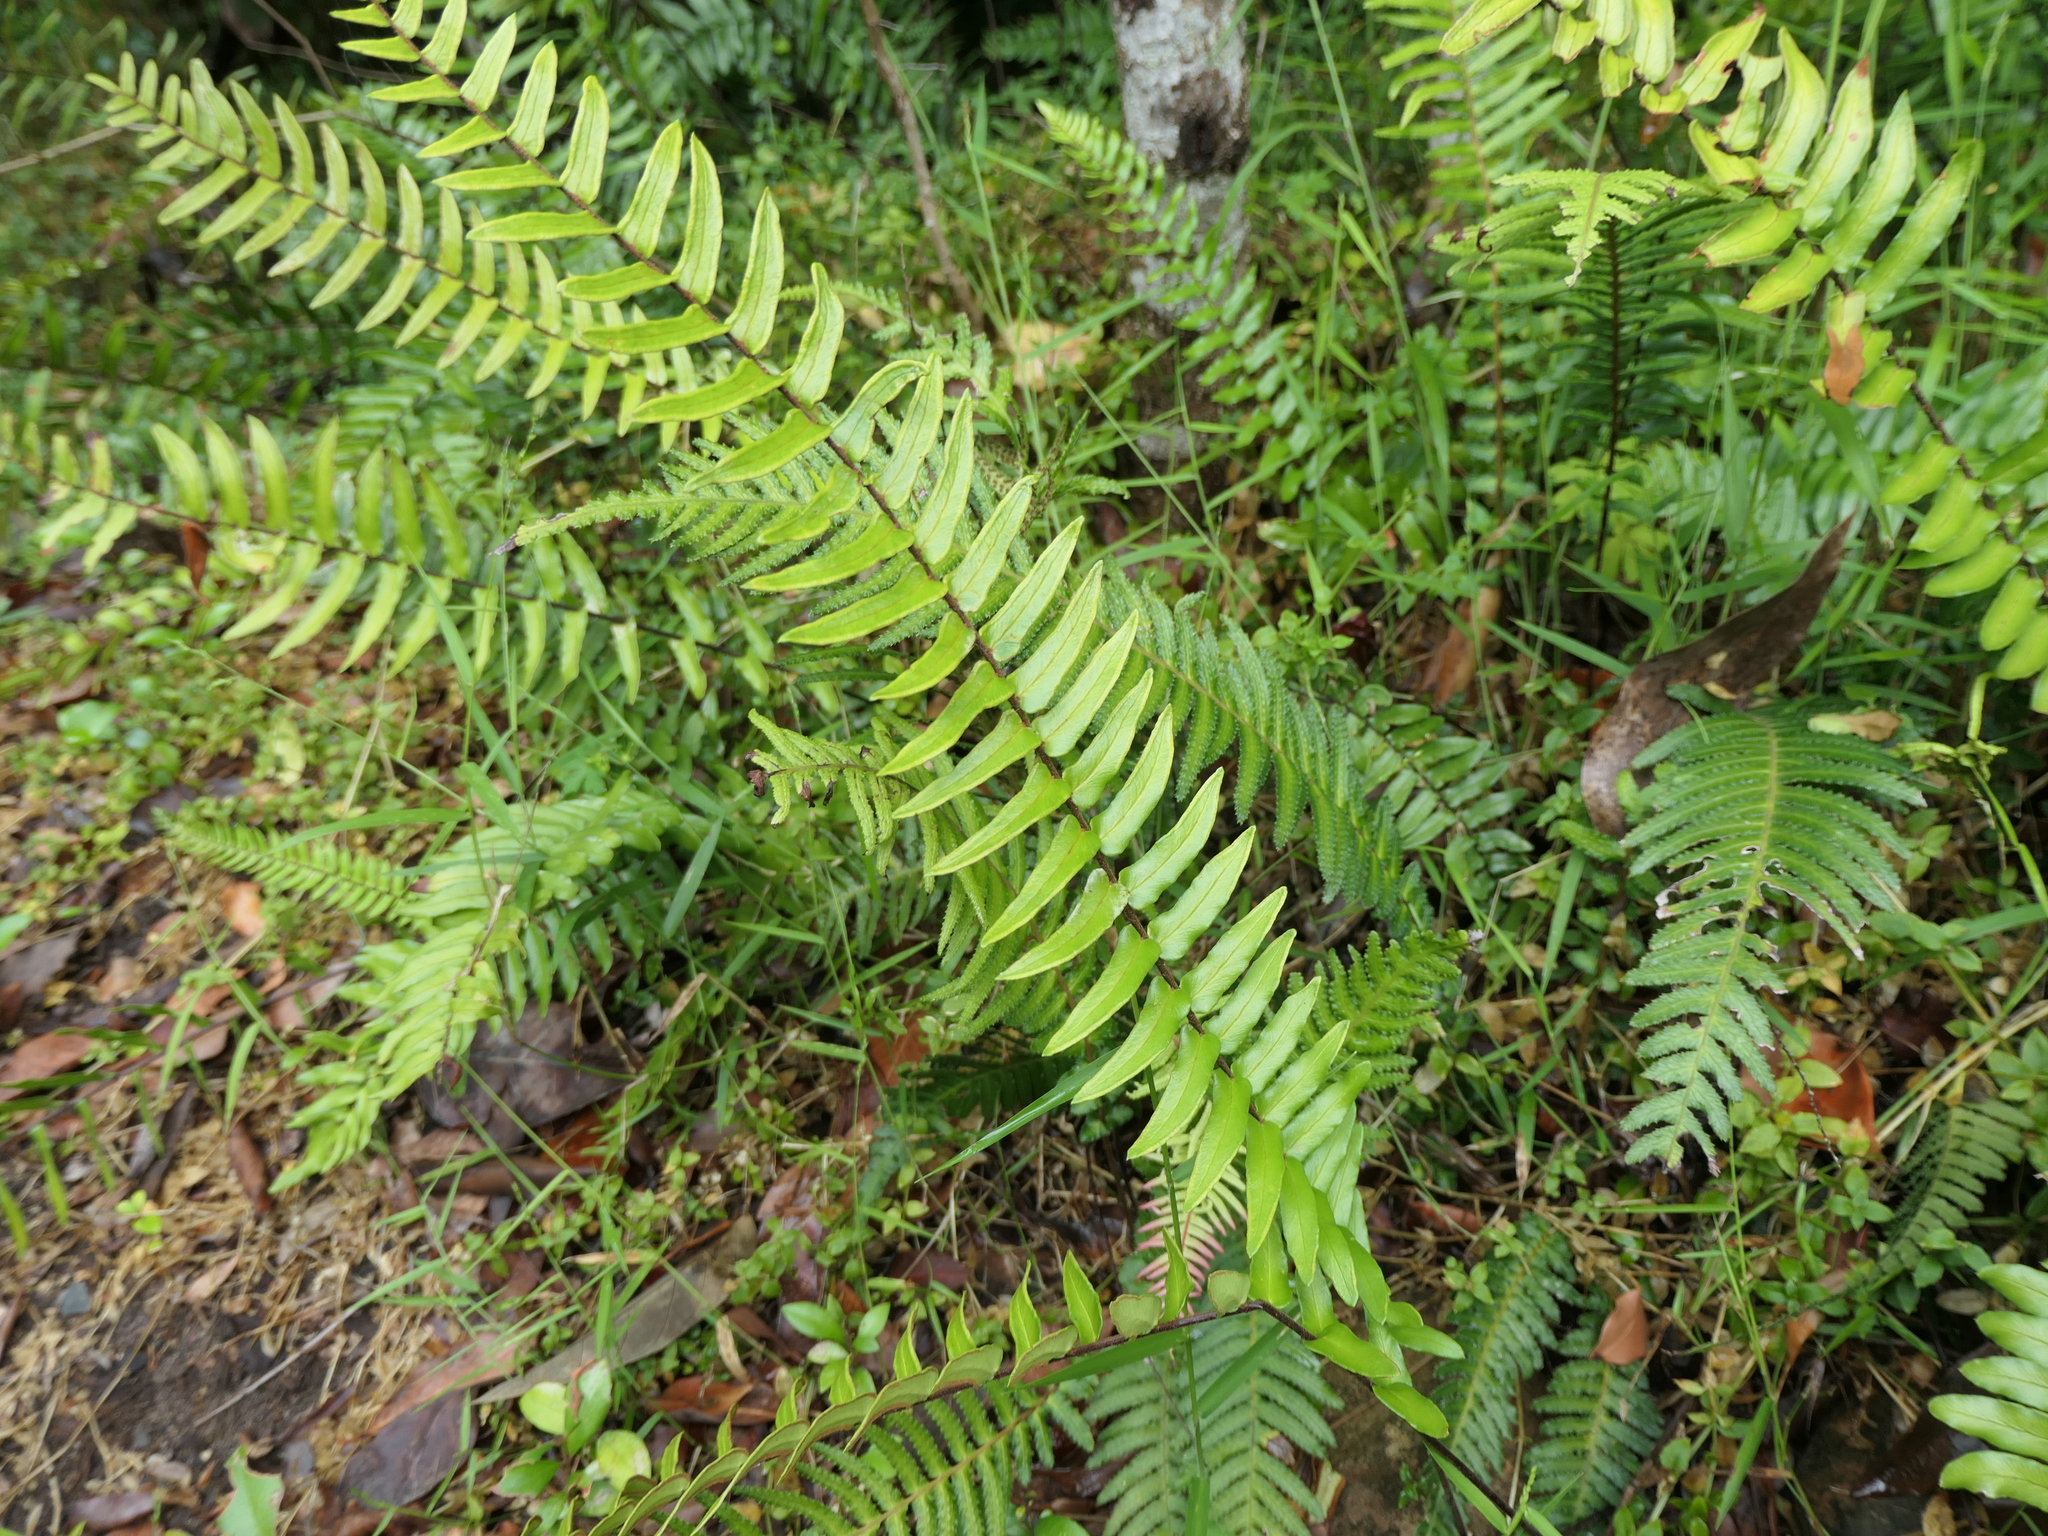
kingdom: Plantae
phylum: Tracheophyta
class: Polypodiopsida
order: Polypodiales
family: Pteridaceae
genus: Pellaea
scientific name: Pellaea falcata
